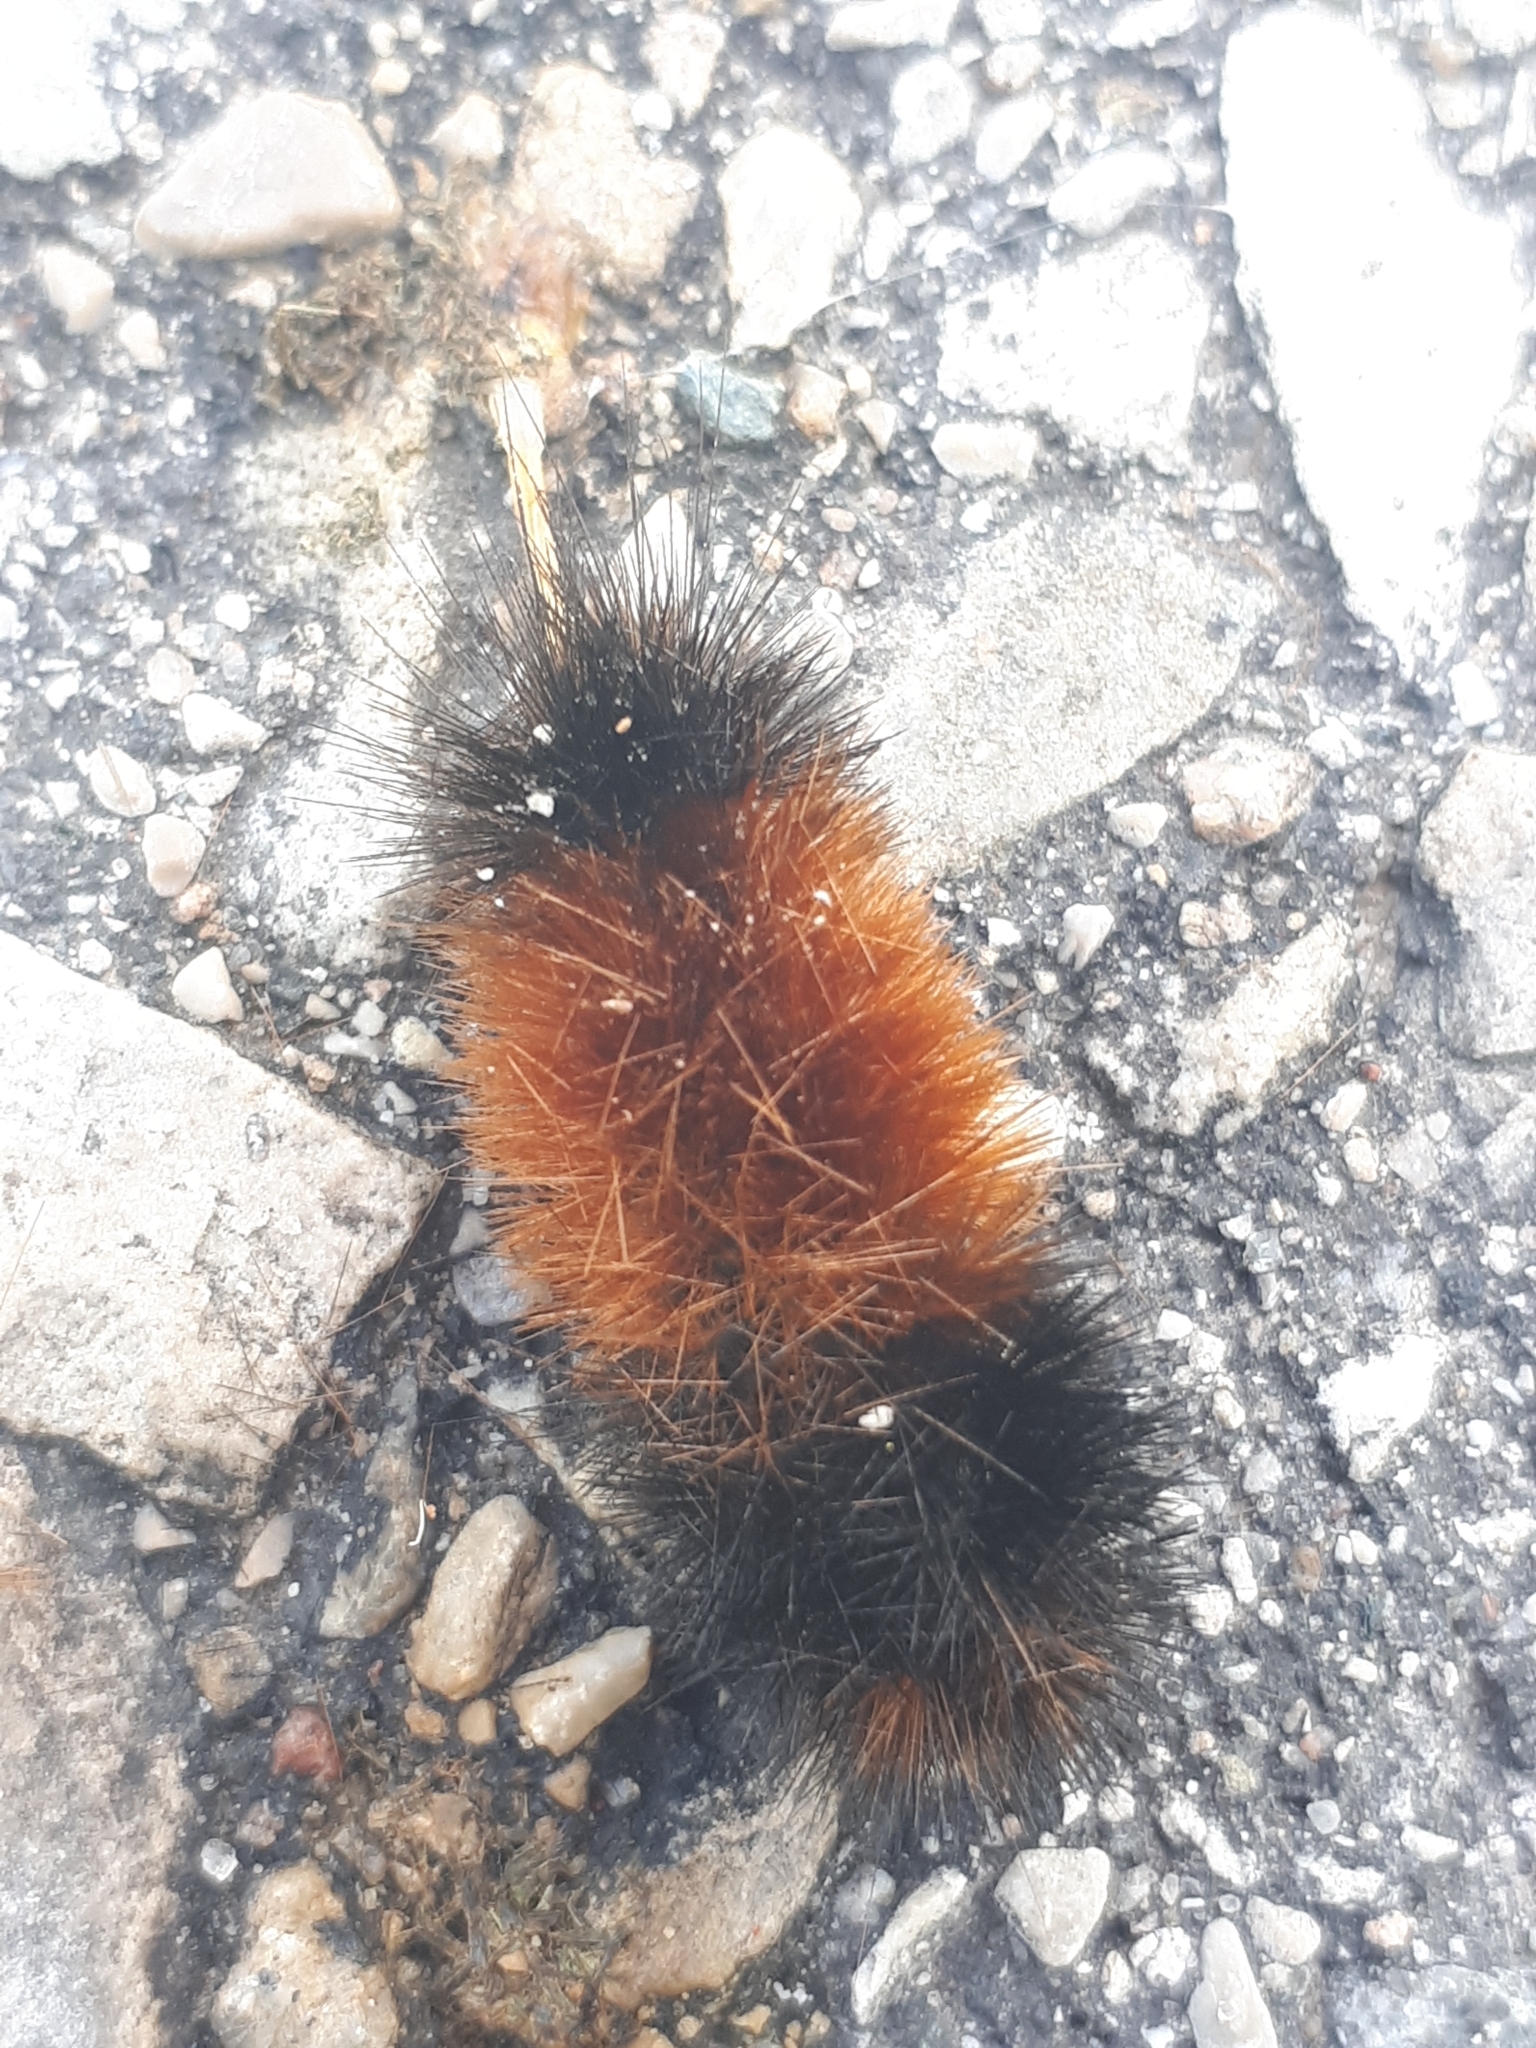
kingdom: Animalia
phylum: Arthropoda
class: Insecta
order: Lepidoptera
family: Erebidae
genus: Pyrrharctia
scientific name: Pyrrharctia isabella
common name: Isabella tiger moth
